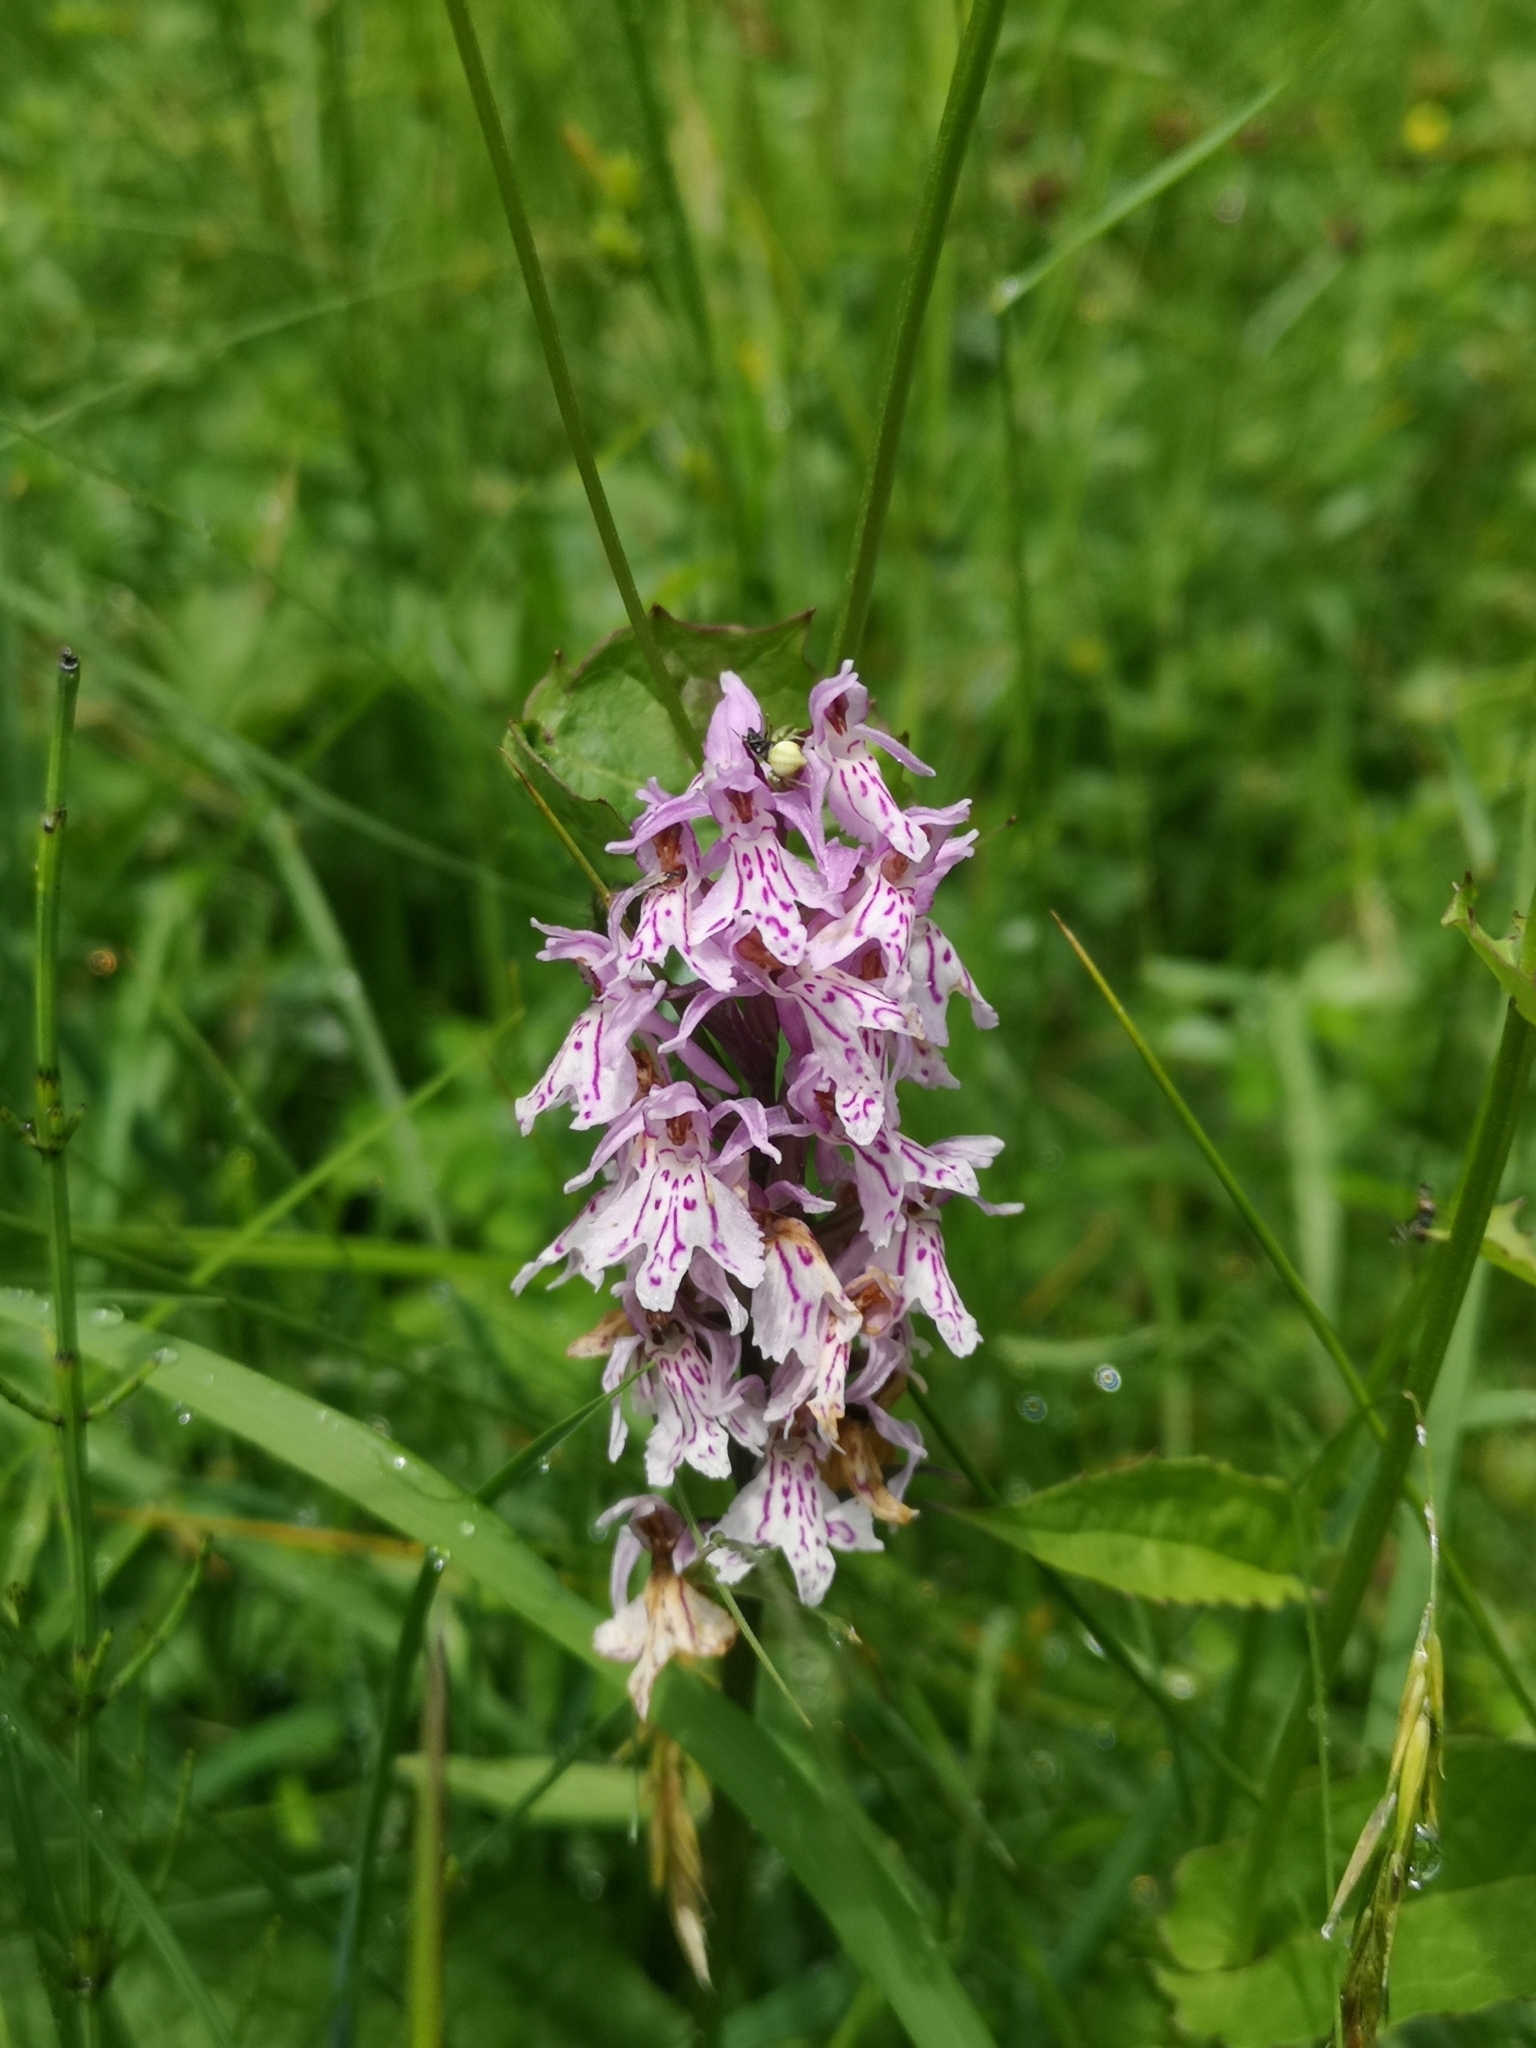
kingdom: Plantae
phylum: Tracheophyta
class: Liliopsida
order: Asparagales
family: Orchidaceae
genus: Dactylorhiza
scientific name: Dactylorhiza maculata
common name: Heath spotted-orchid
